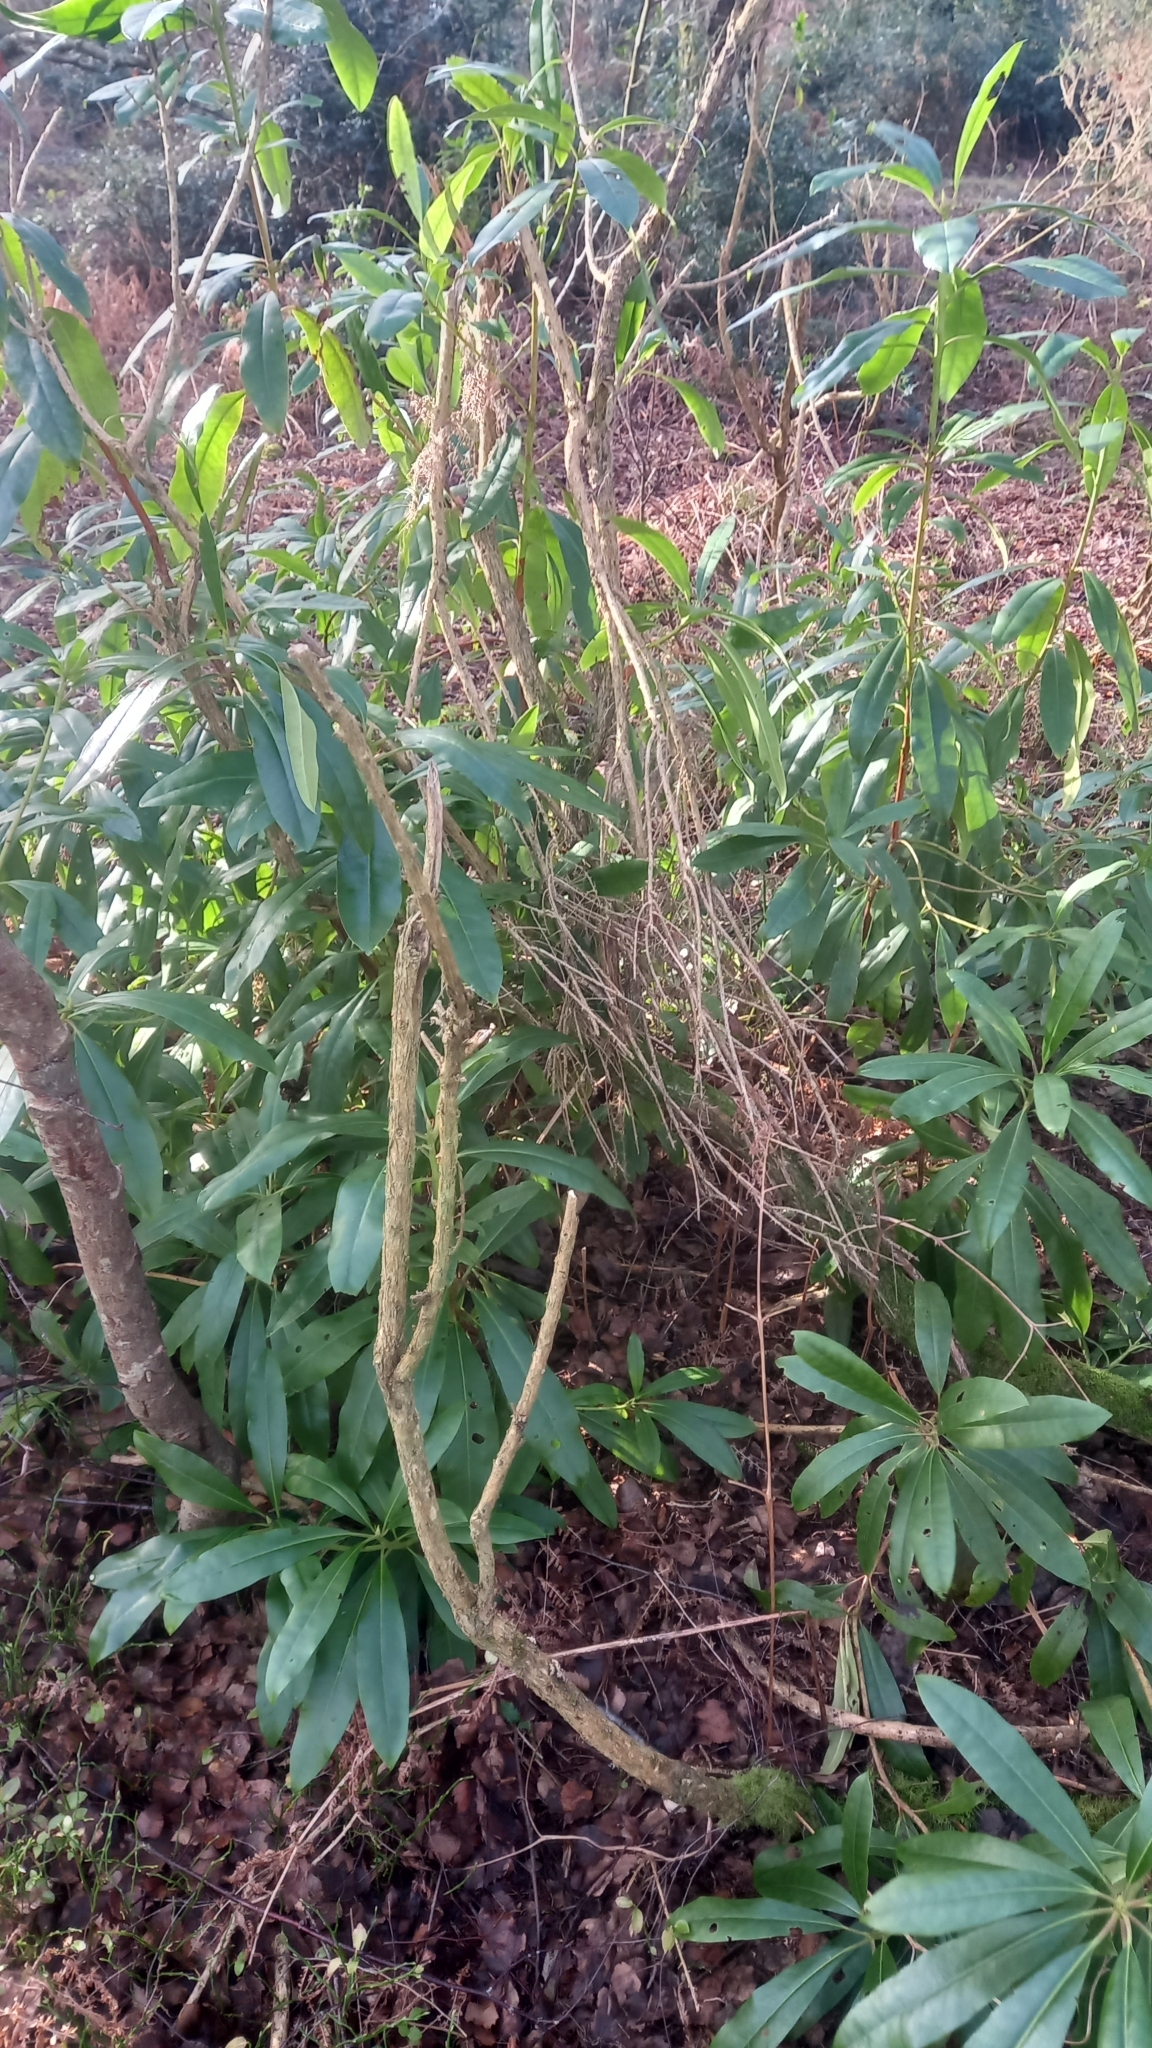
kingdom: Plantae
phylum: Tracheophyta
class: Magnoliopsida
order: Ericales
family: Ericaceae
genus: Rhododendron
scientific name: Rhododendron ponticum
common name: Rhododendron
